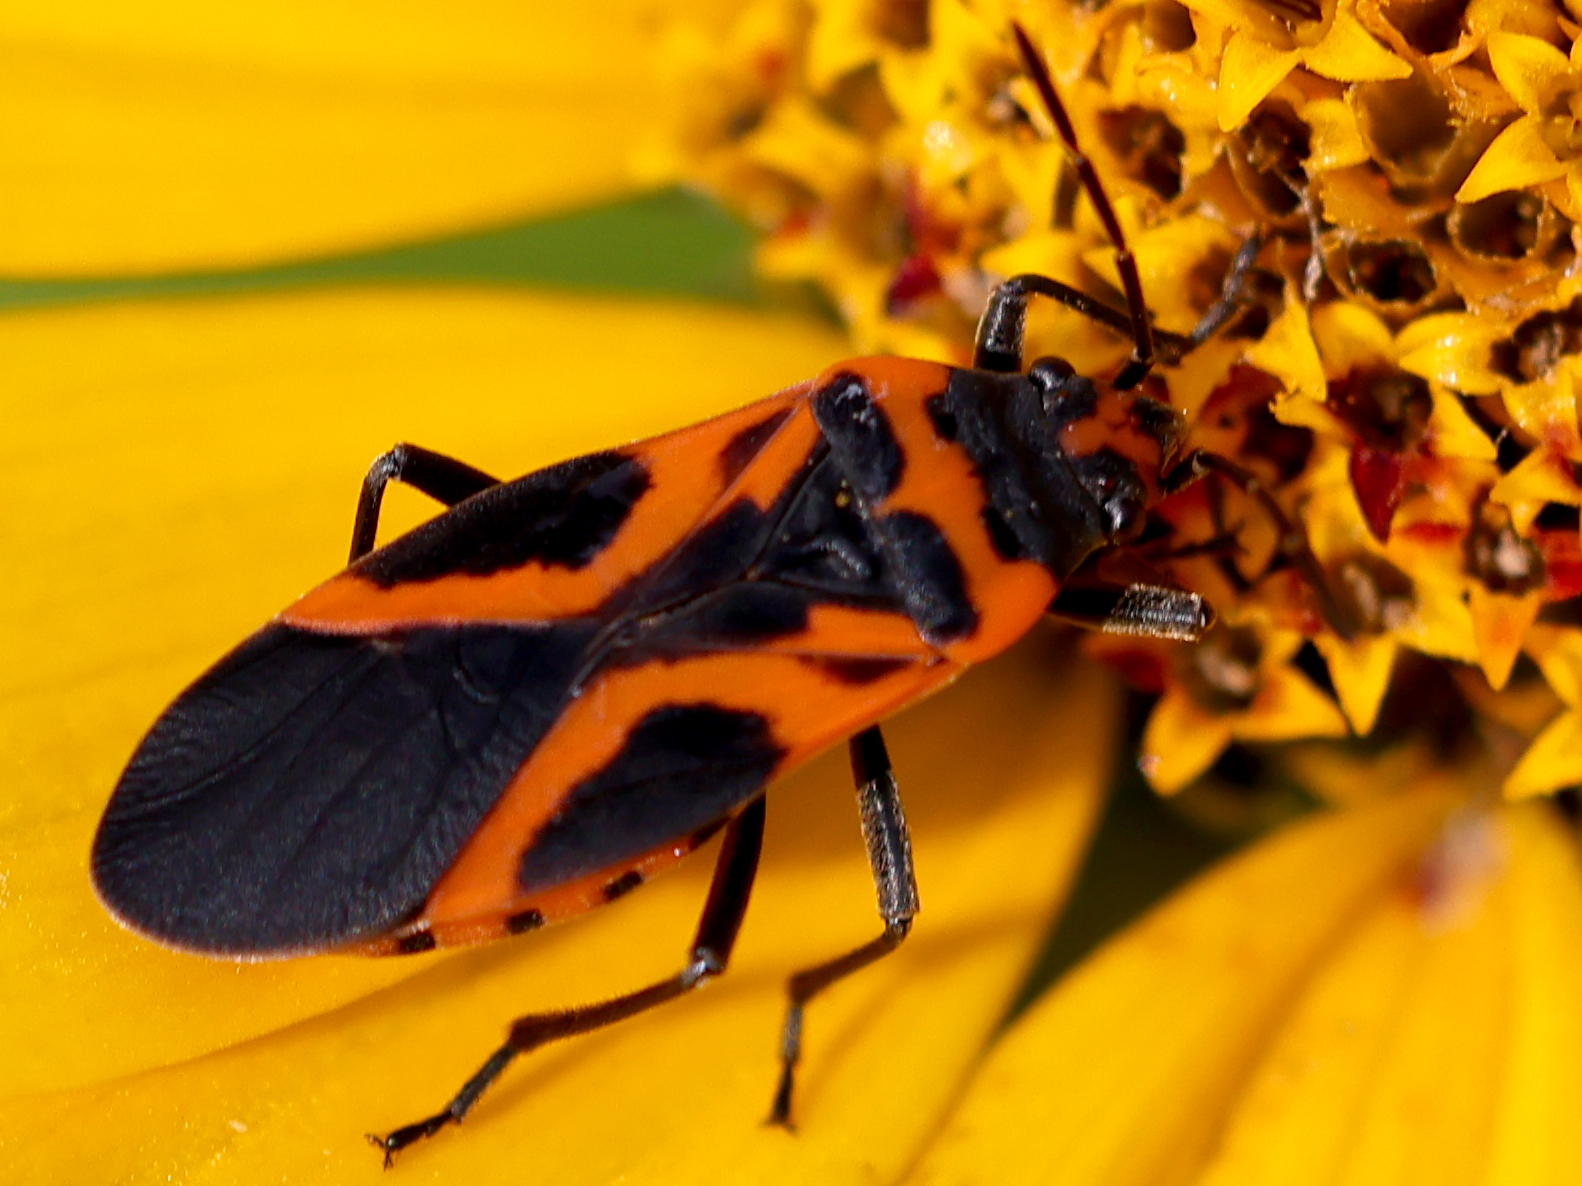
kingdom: Animalia
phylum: Arthropoda
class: Insecta
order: Hemiptera
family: Lygaeidae
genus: Lygaeus
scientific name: Lygaeus turcicus
